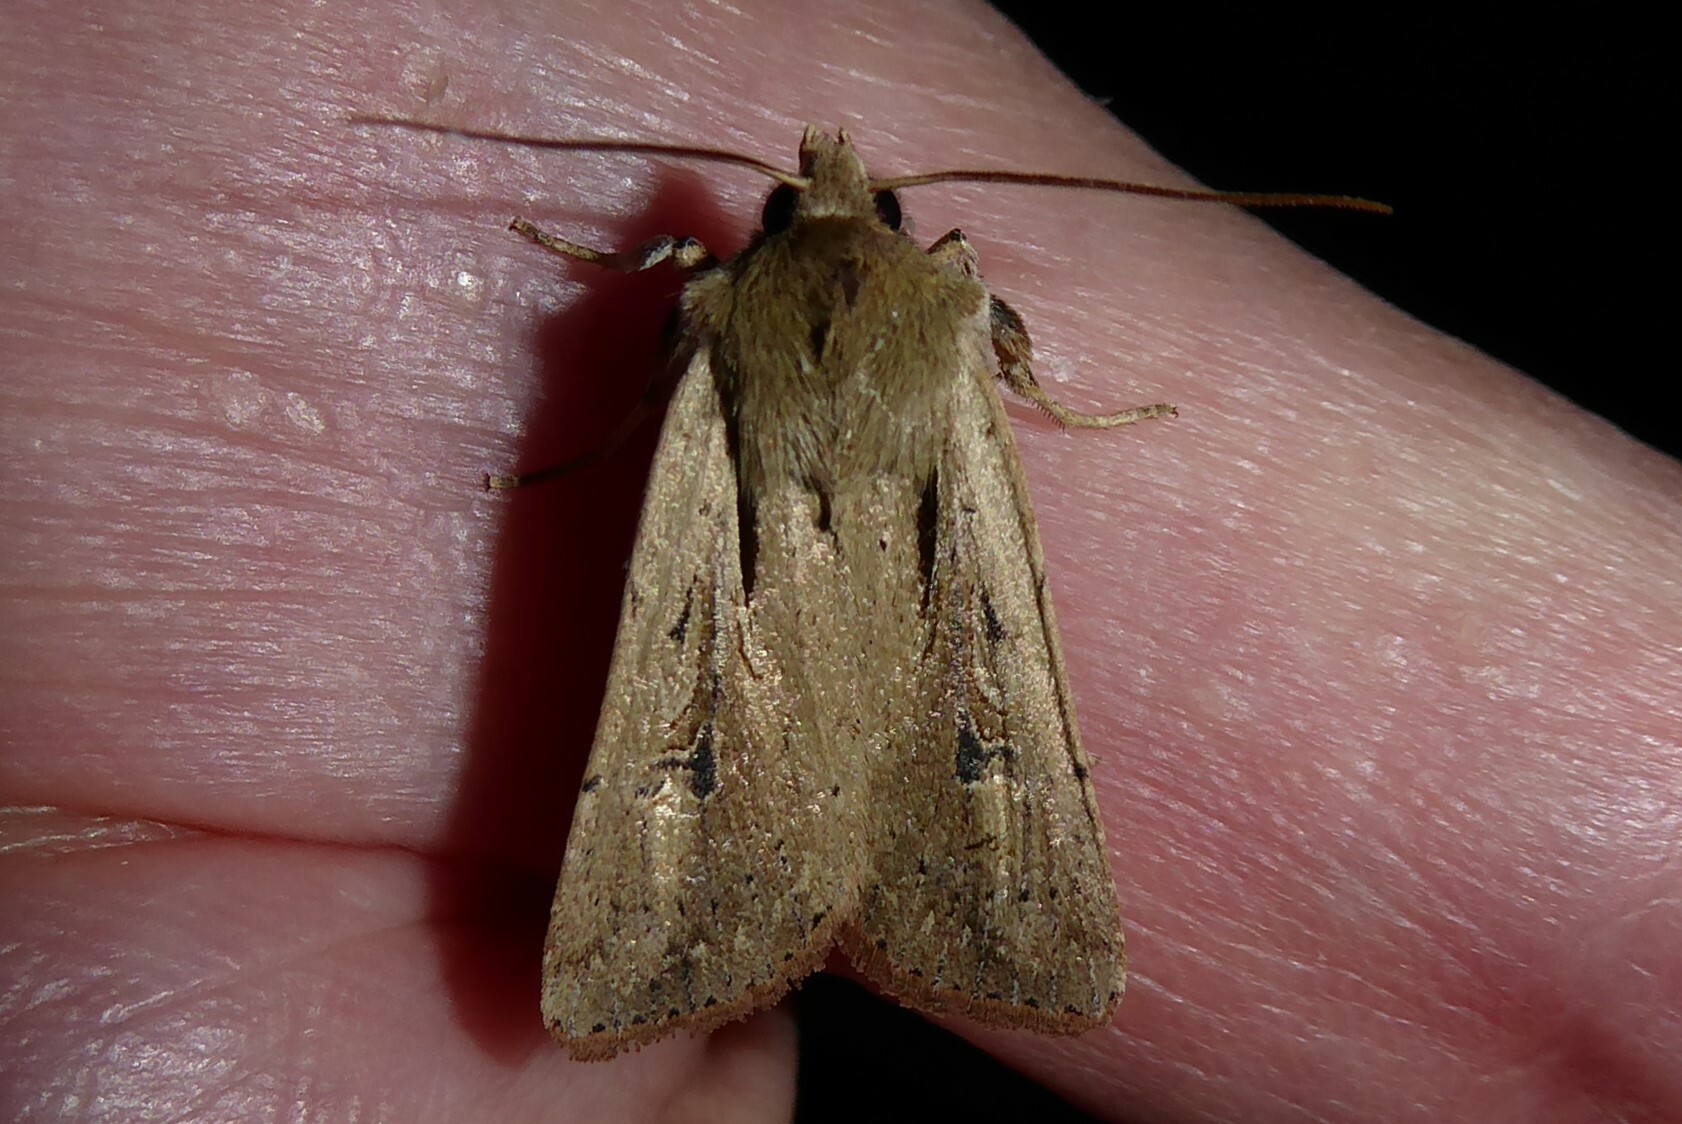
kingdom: Animalia
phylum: Arthropoda
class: Insecta
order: Lepidoptera
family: Noctuidae
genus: Ichneutica
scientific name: Ichneutica atristriga
